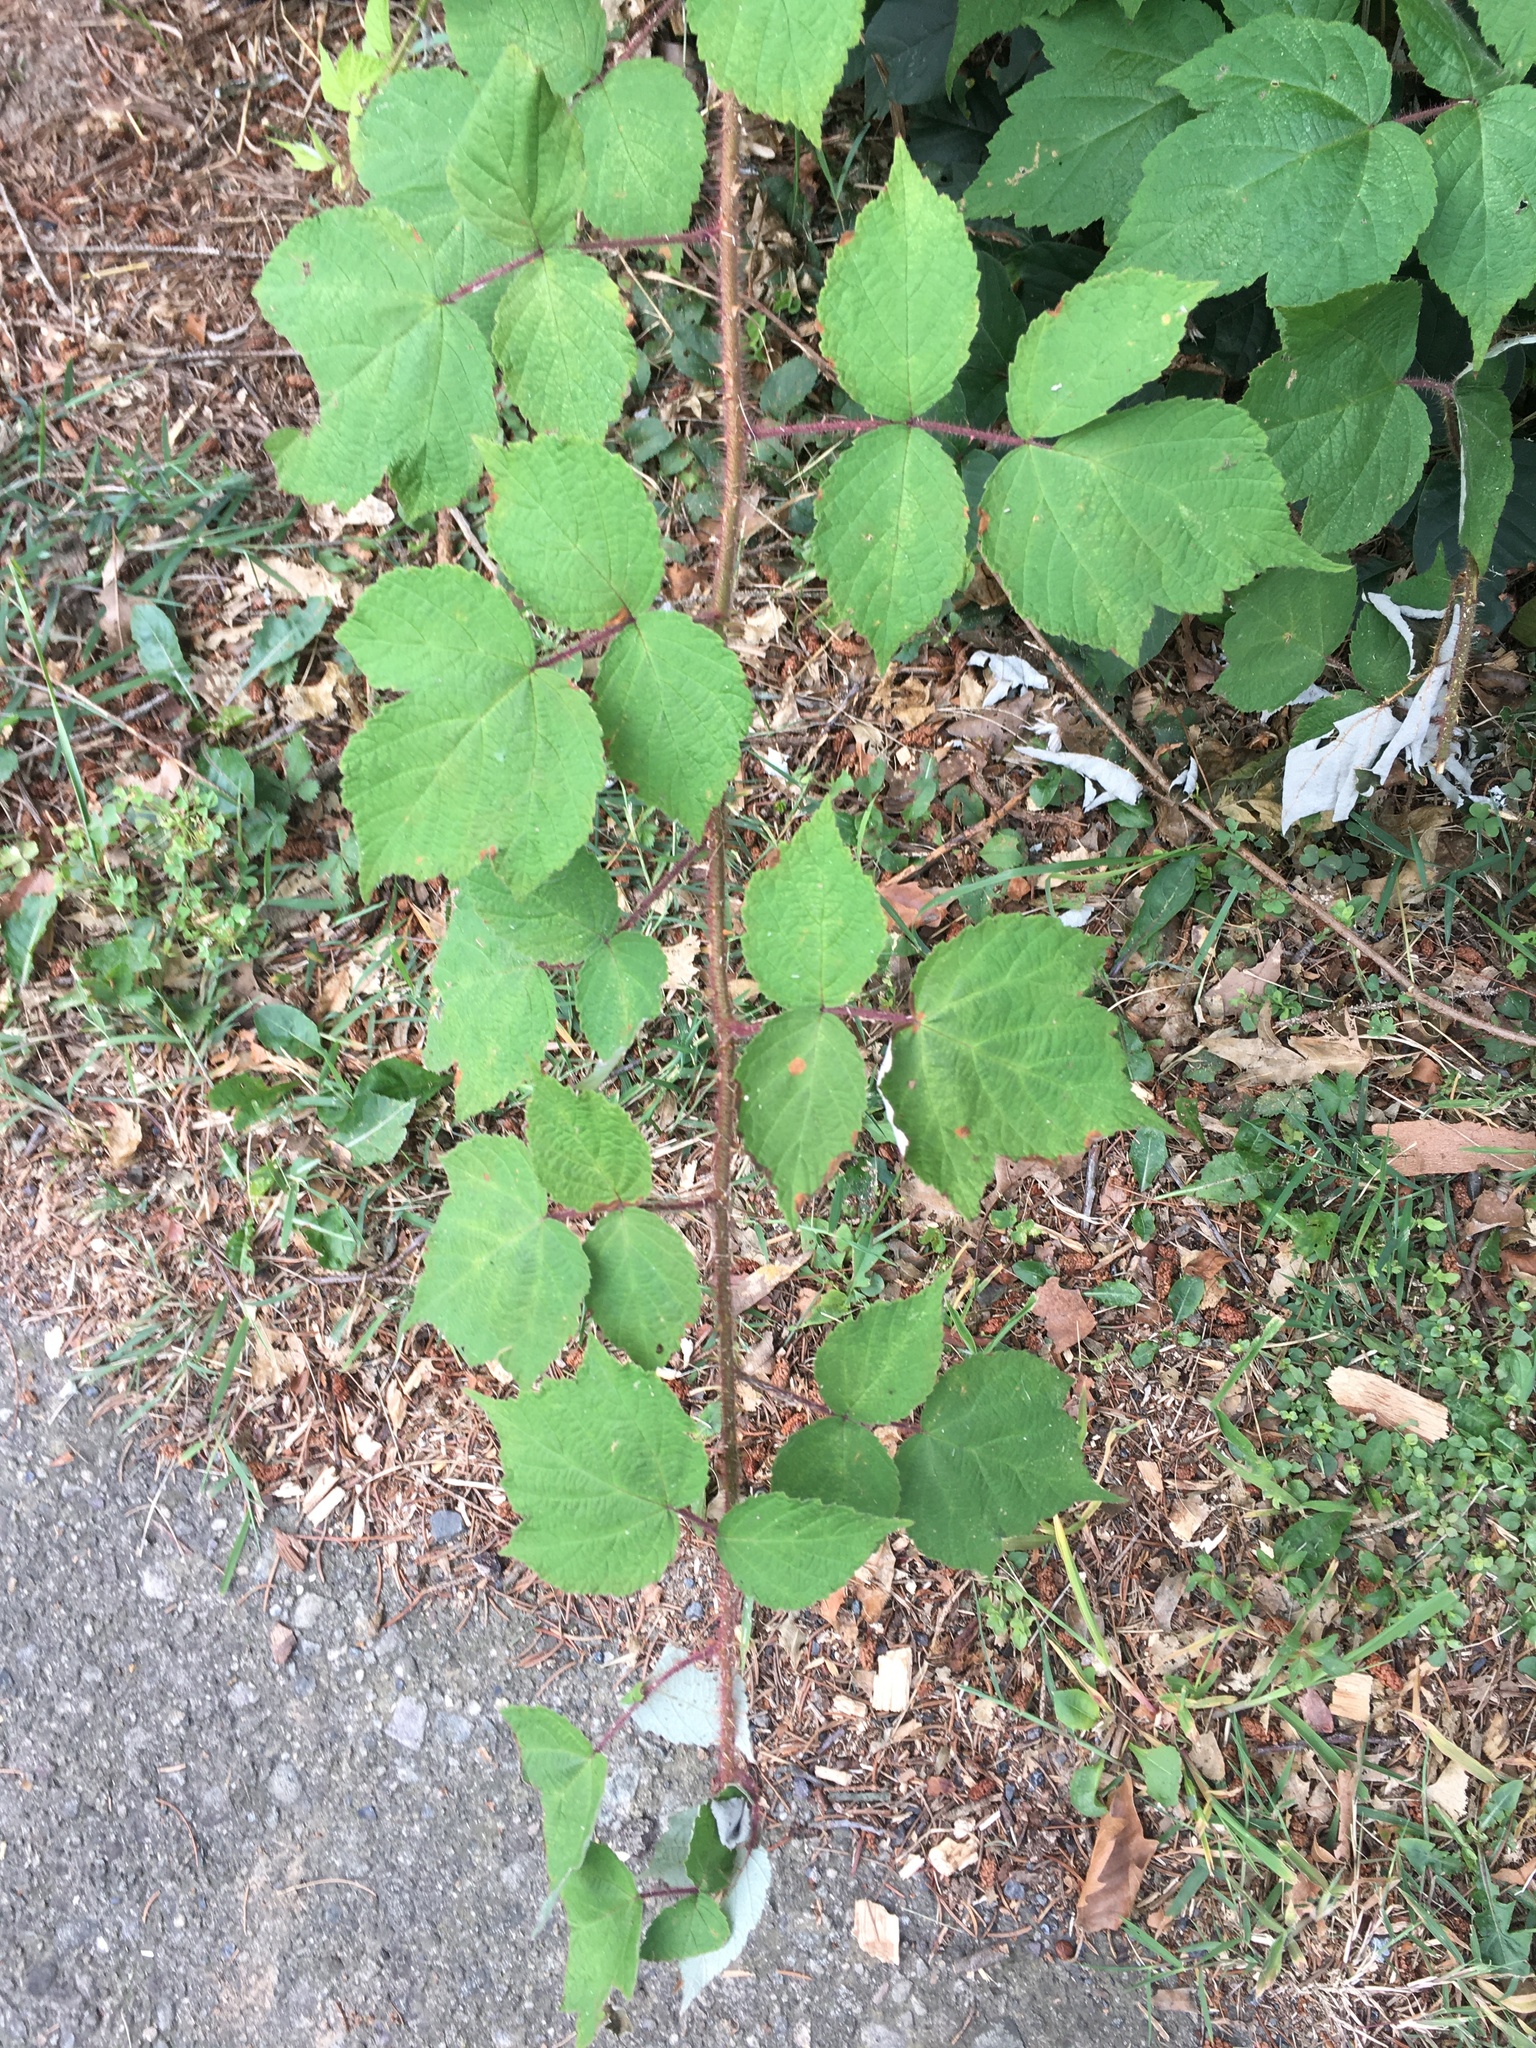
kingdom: Plantae
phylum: Tracheophyta
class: Magnoliopsida
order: Rosales
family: Rosaceae
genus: Rubus
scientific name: Rubus phoenicolasius
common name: Japanese wineberry
